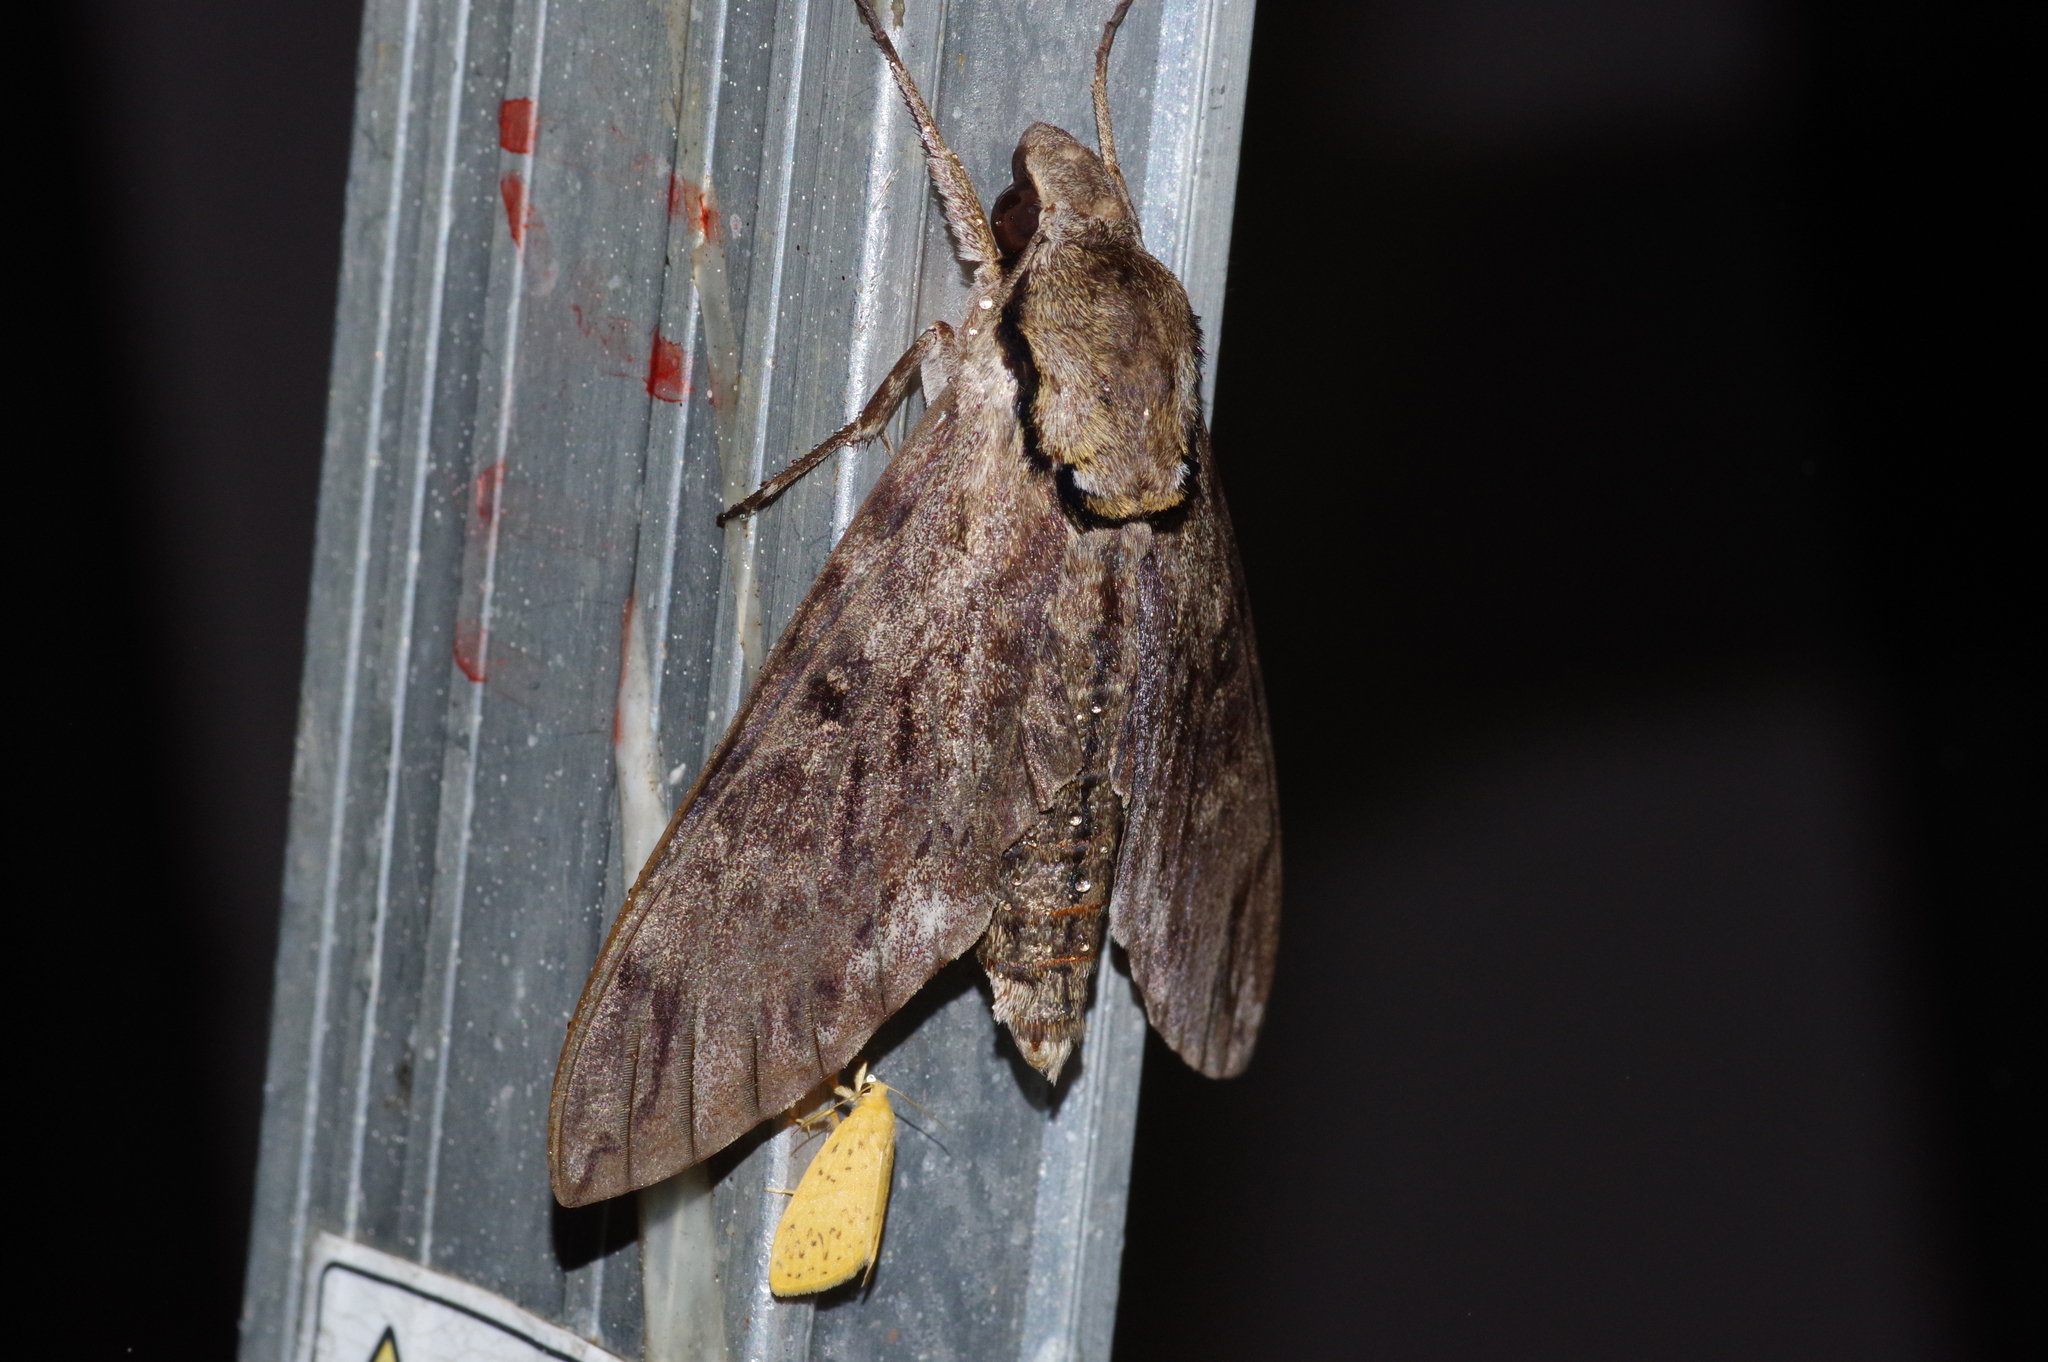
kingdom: Animalia
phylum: Arthropoda
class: Insecta
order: Lepidoptera
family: Sphingidae
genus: Psilogramma
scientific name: Psilogramma increta
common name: Gray hawk moth
